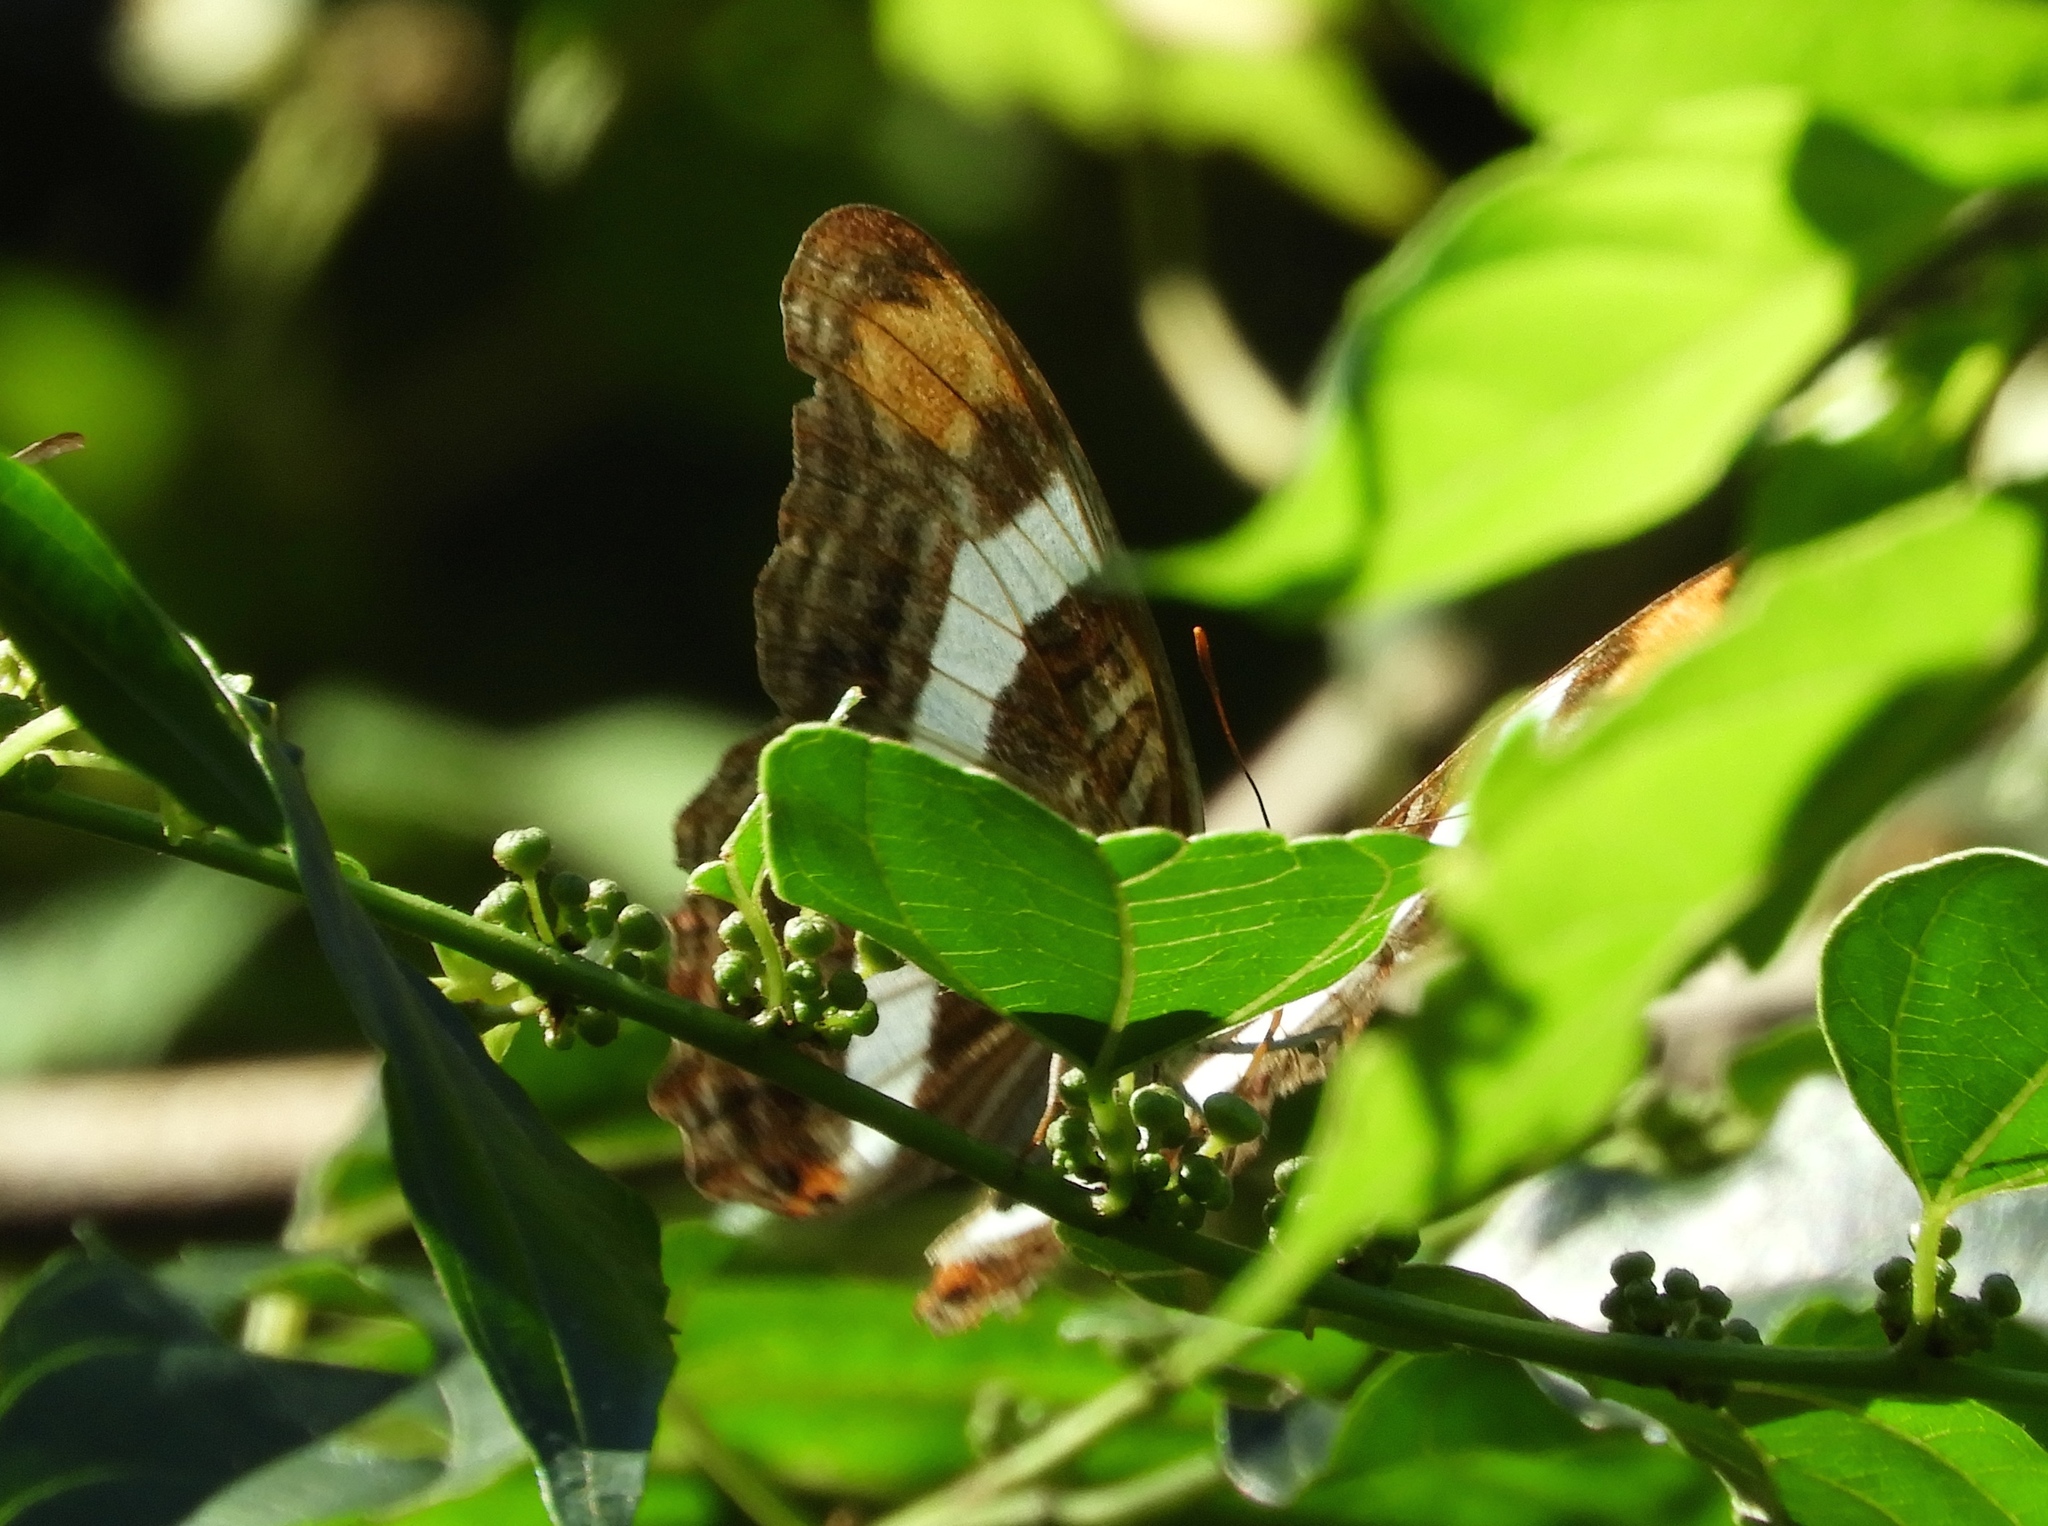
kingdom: Animalia
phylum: Arthropoda
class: Insecta
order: Lepidoptera
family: Nymphalidae
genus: Limenitis
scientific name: Limenitis iphiclus
